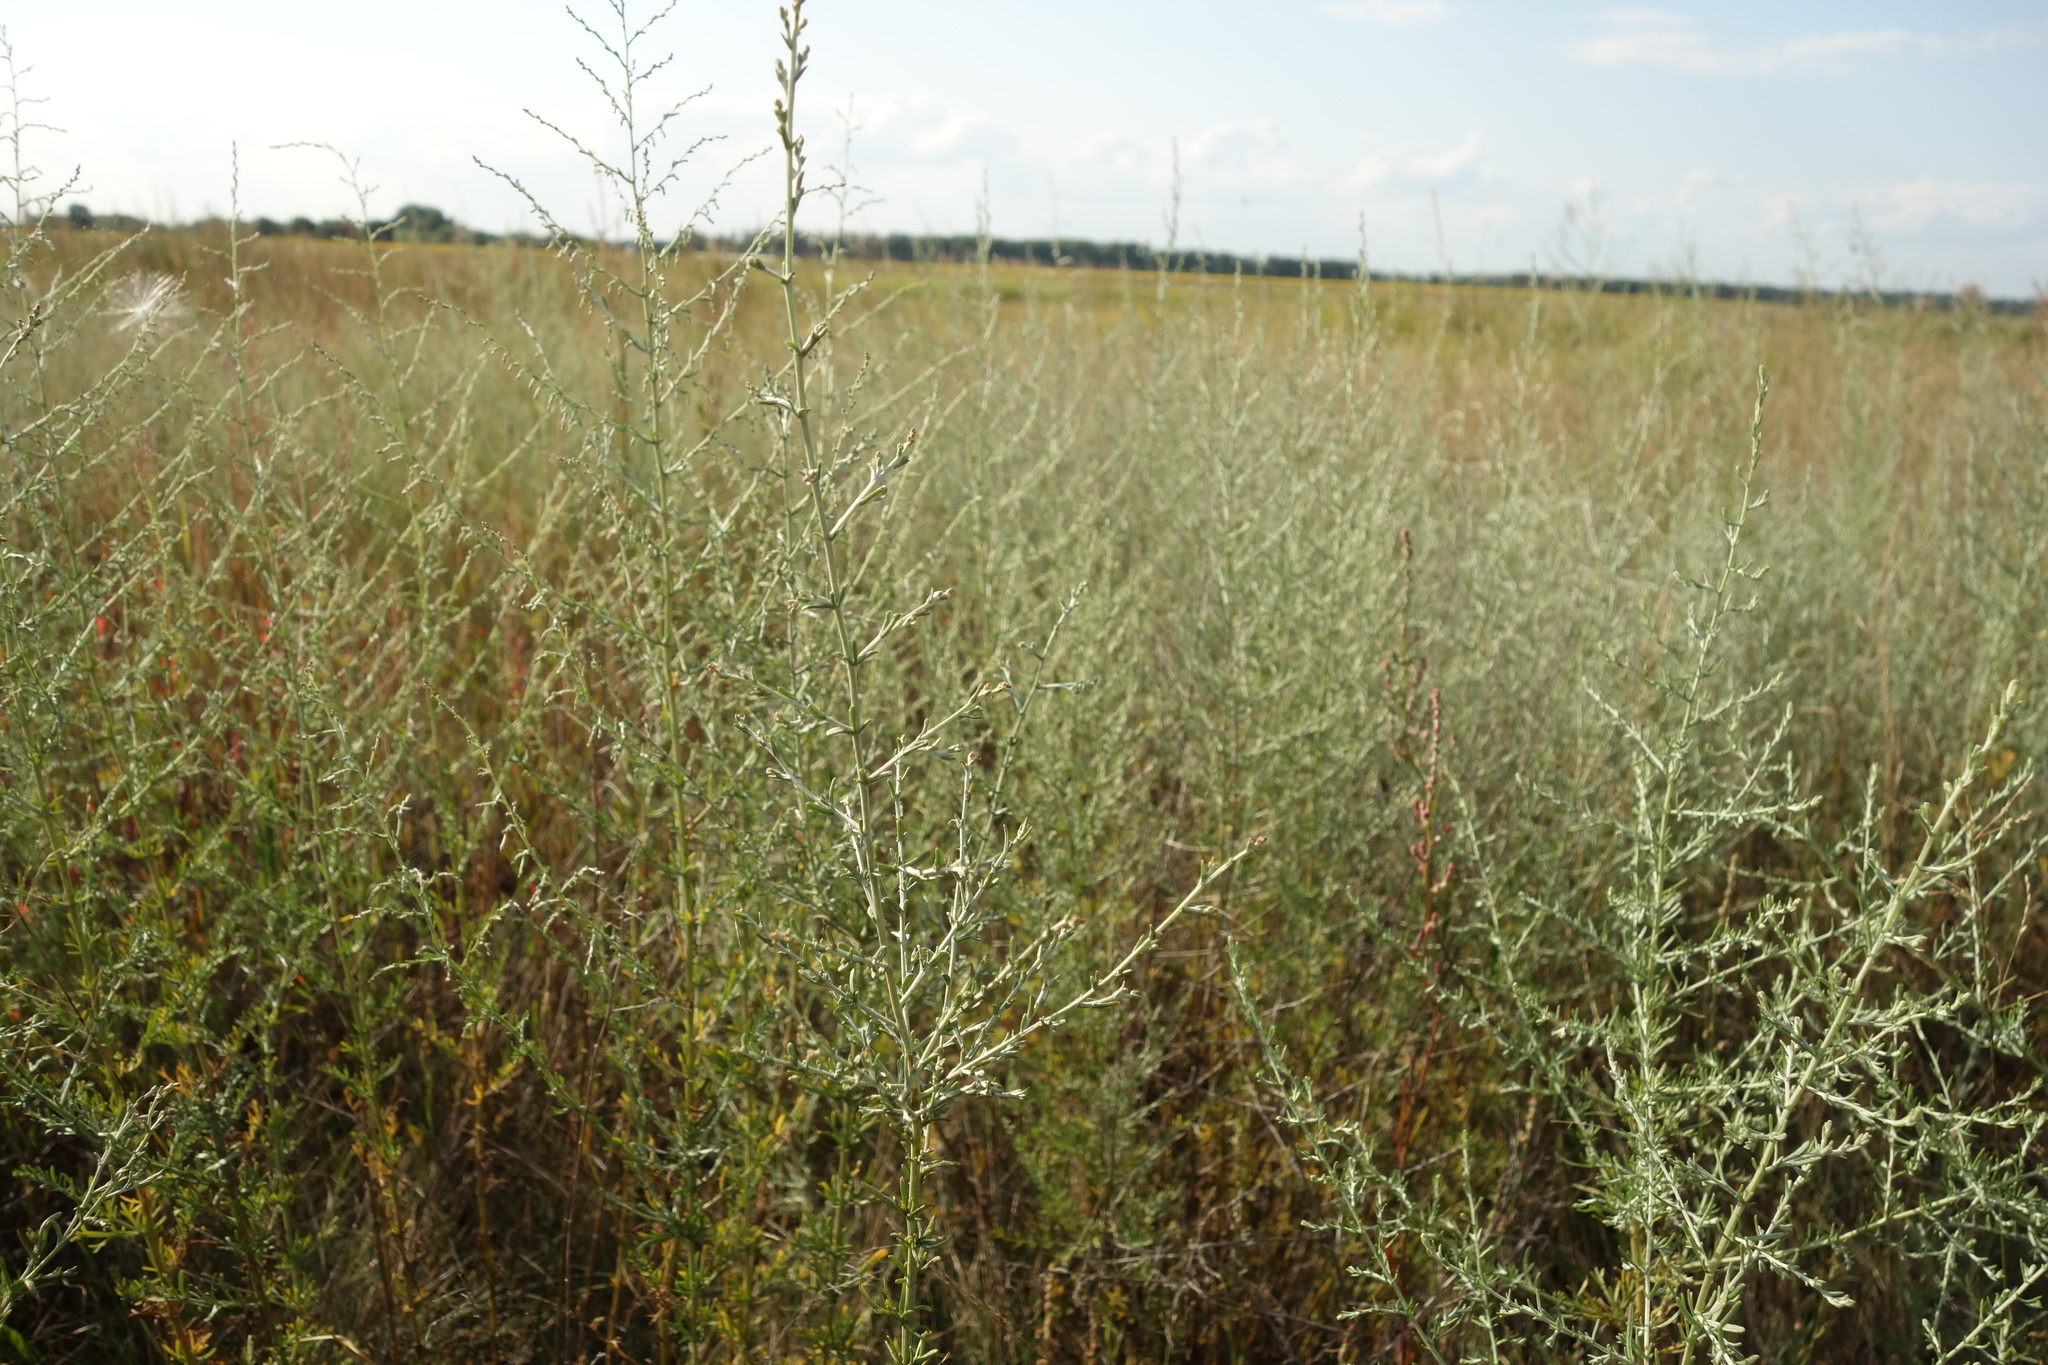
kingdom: Plantae
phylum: Tracheophyta
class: Magnoliopsida
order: Asterales
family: Asteraceae
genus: Artemisia
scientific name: Artemisia santonicum
